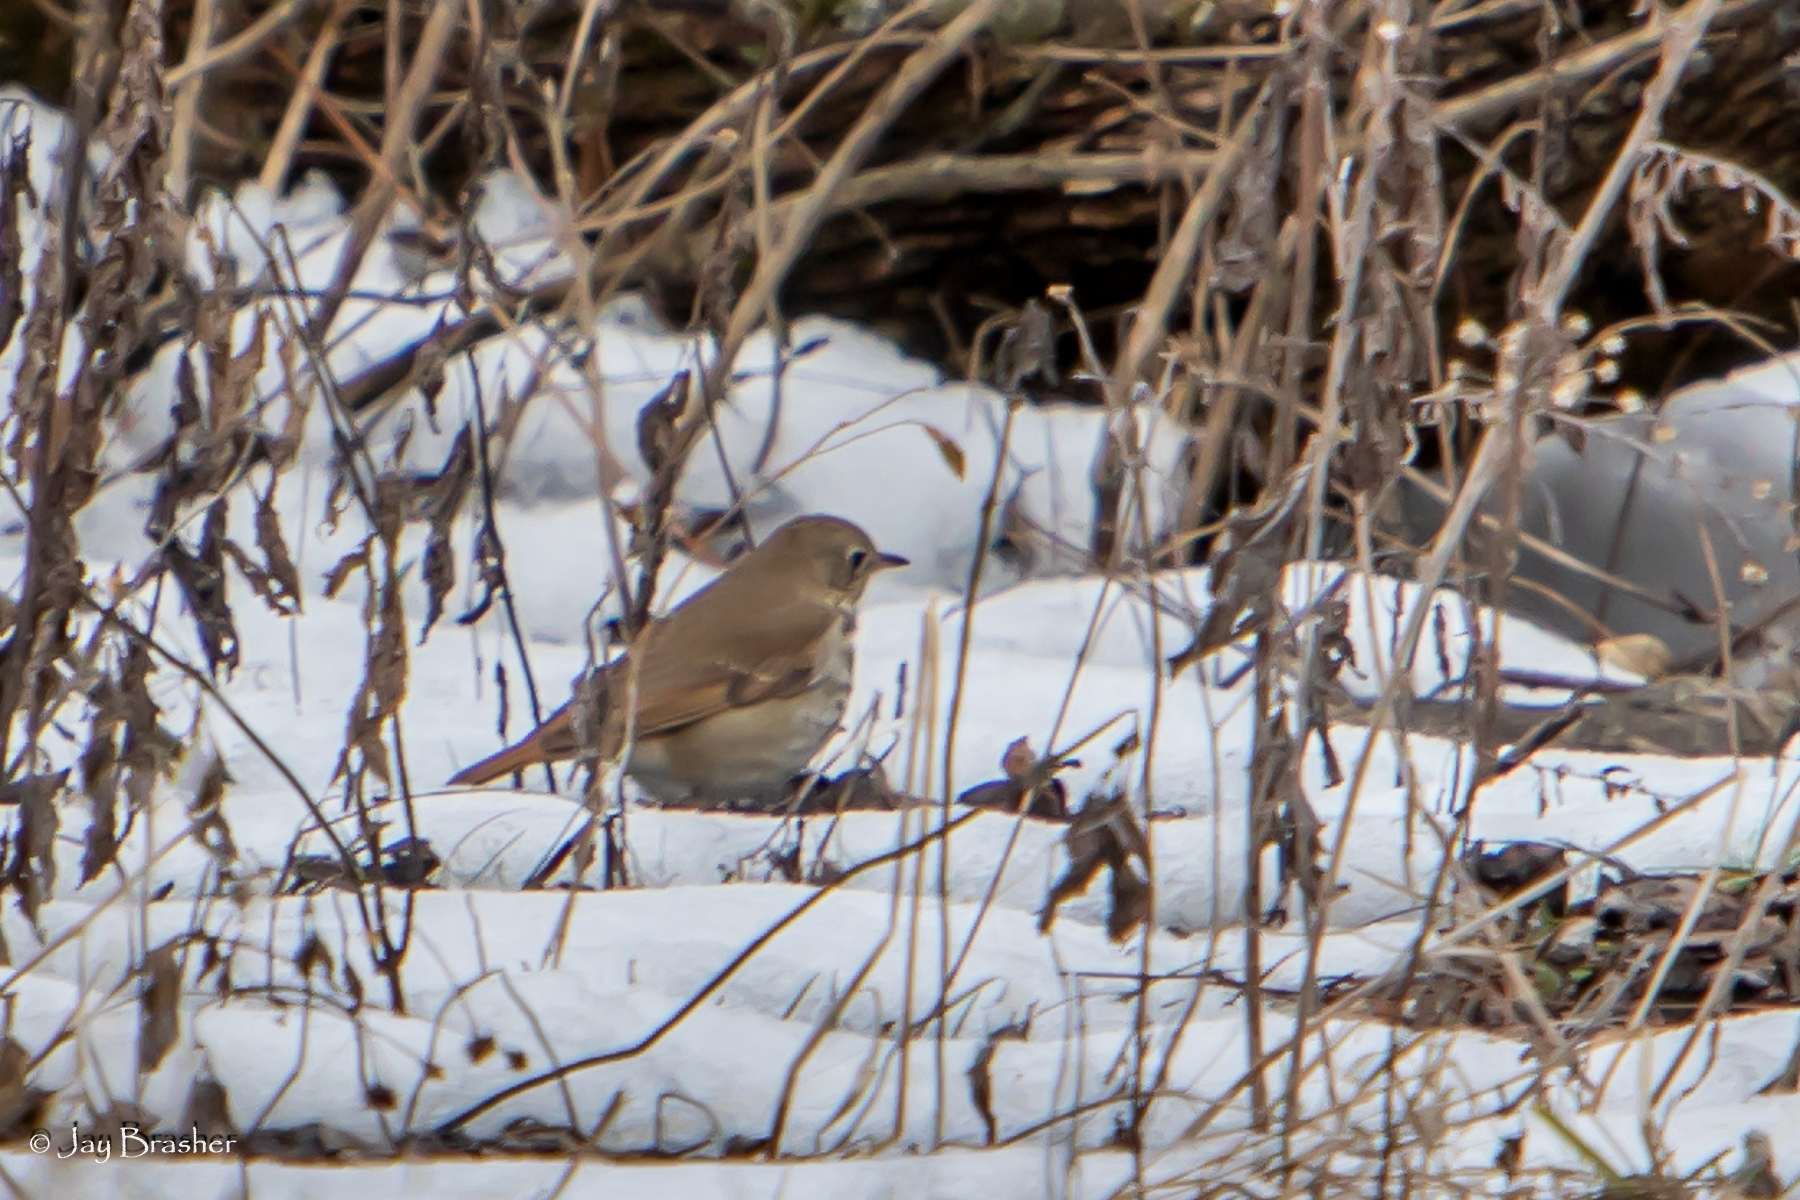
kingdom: Animalia
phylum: Chordata
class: Aves
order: Passeriformes
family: Turdidae
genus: Catharus
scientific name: Catharus guttatus
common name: Hermit thrush
